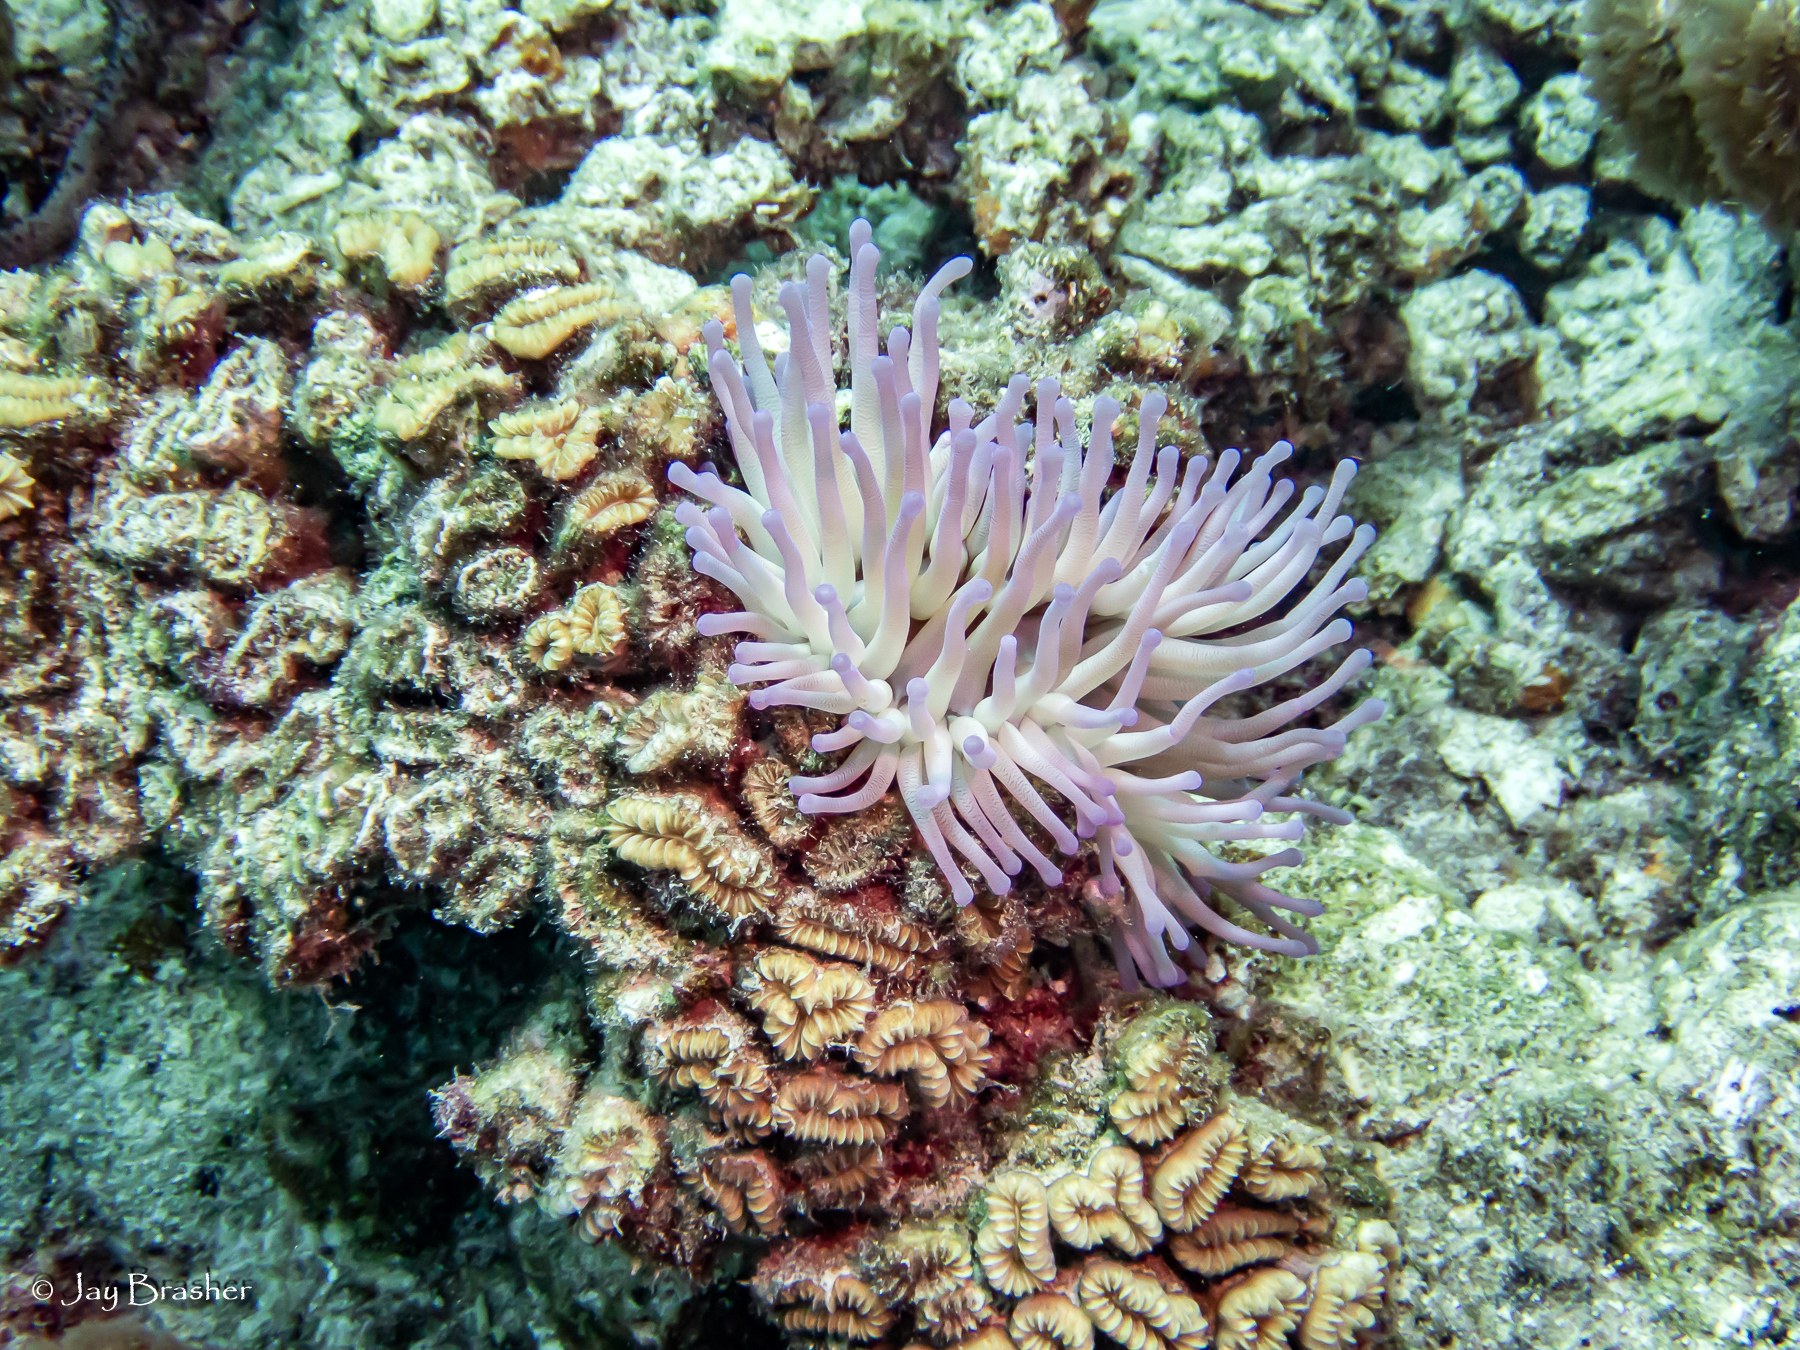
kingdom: Animalia
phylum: Cnidaria
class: Anthozoa
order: Actiniaria
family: Actiniidae
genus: Condylactis
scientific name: Condylactis gigantea
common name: Giant caribbean anemone
